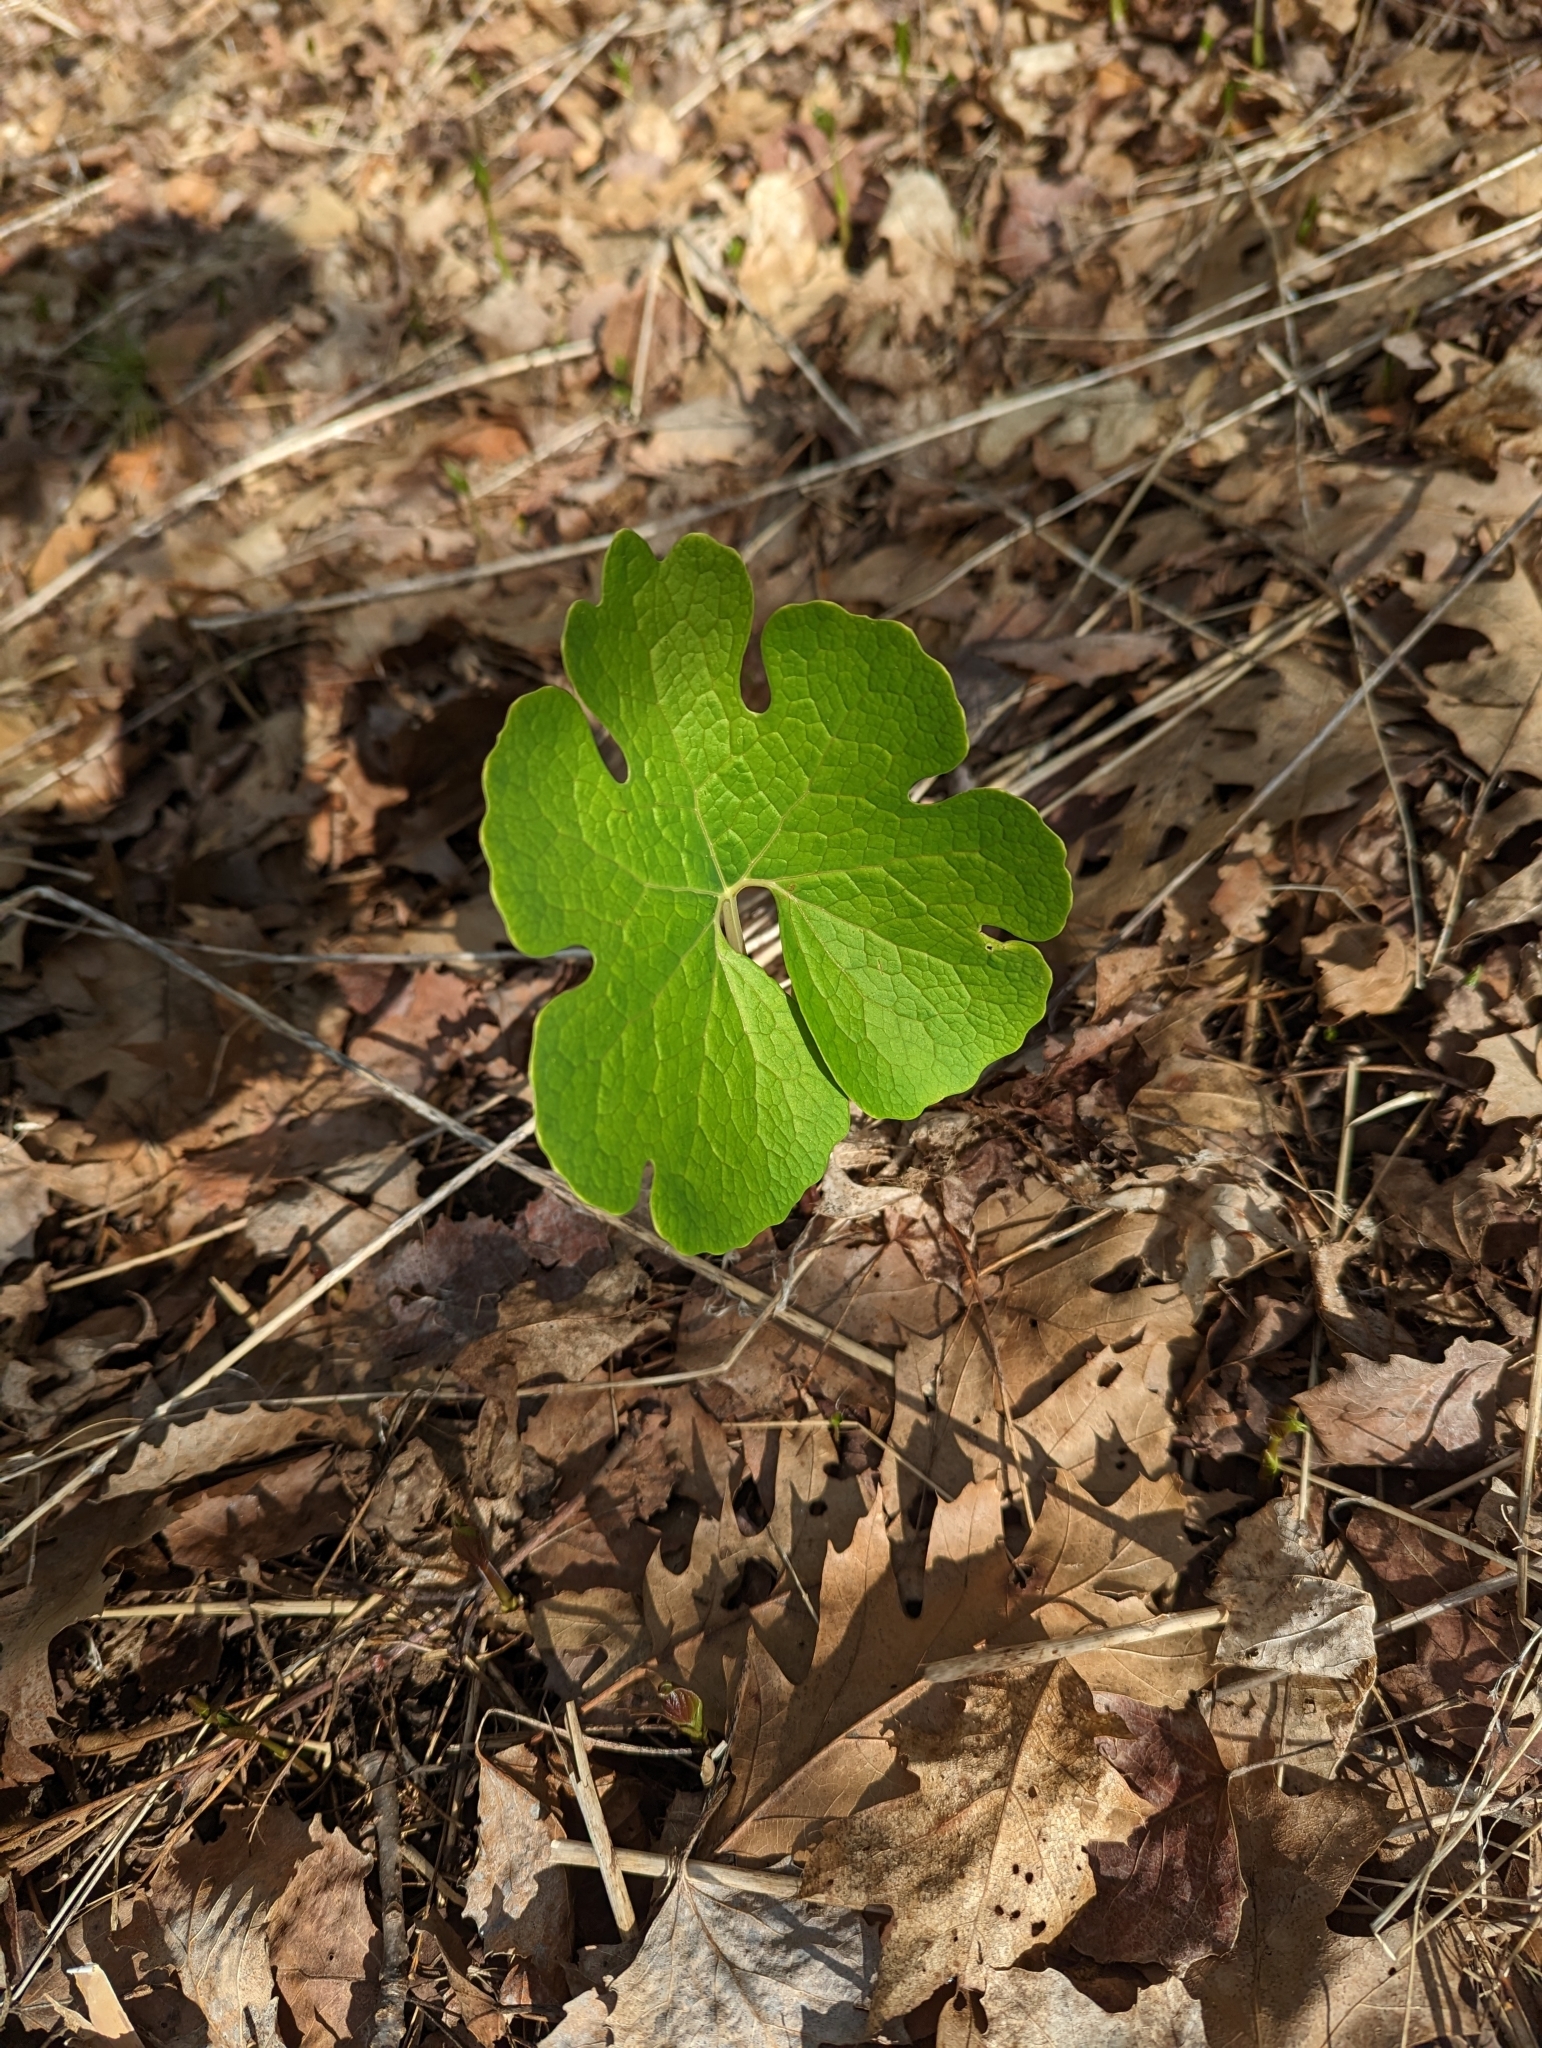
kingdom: Plantae
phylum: Tracheophyta
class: Magnoliopsida
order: Ranunculales
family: Papaveraceae
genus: Sanguinaria
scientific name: Sanguinaria canadensis
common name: Bloodroot
